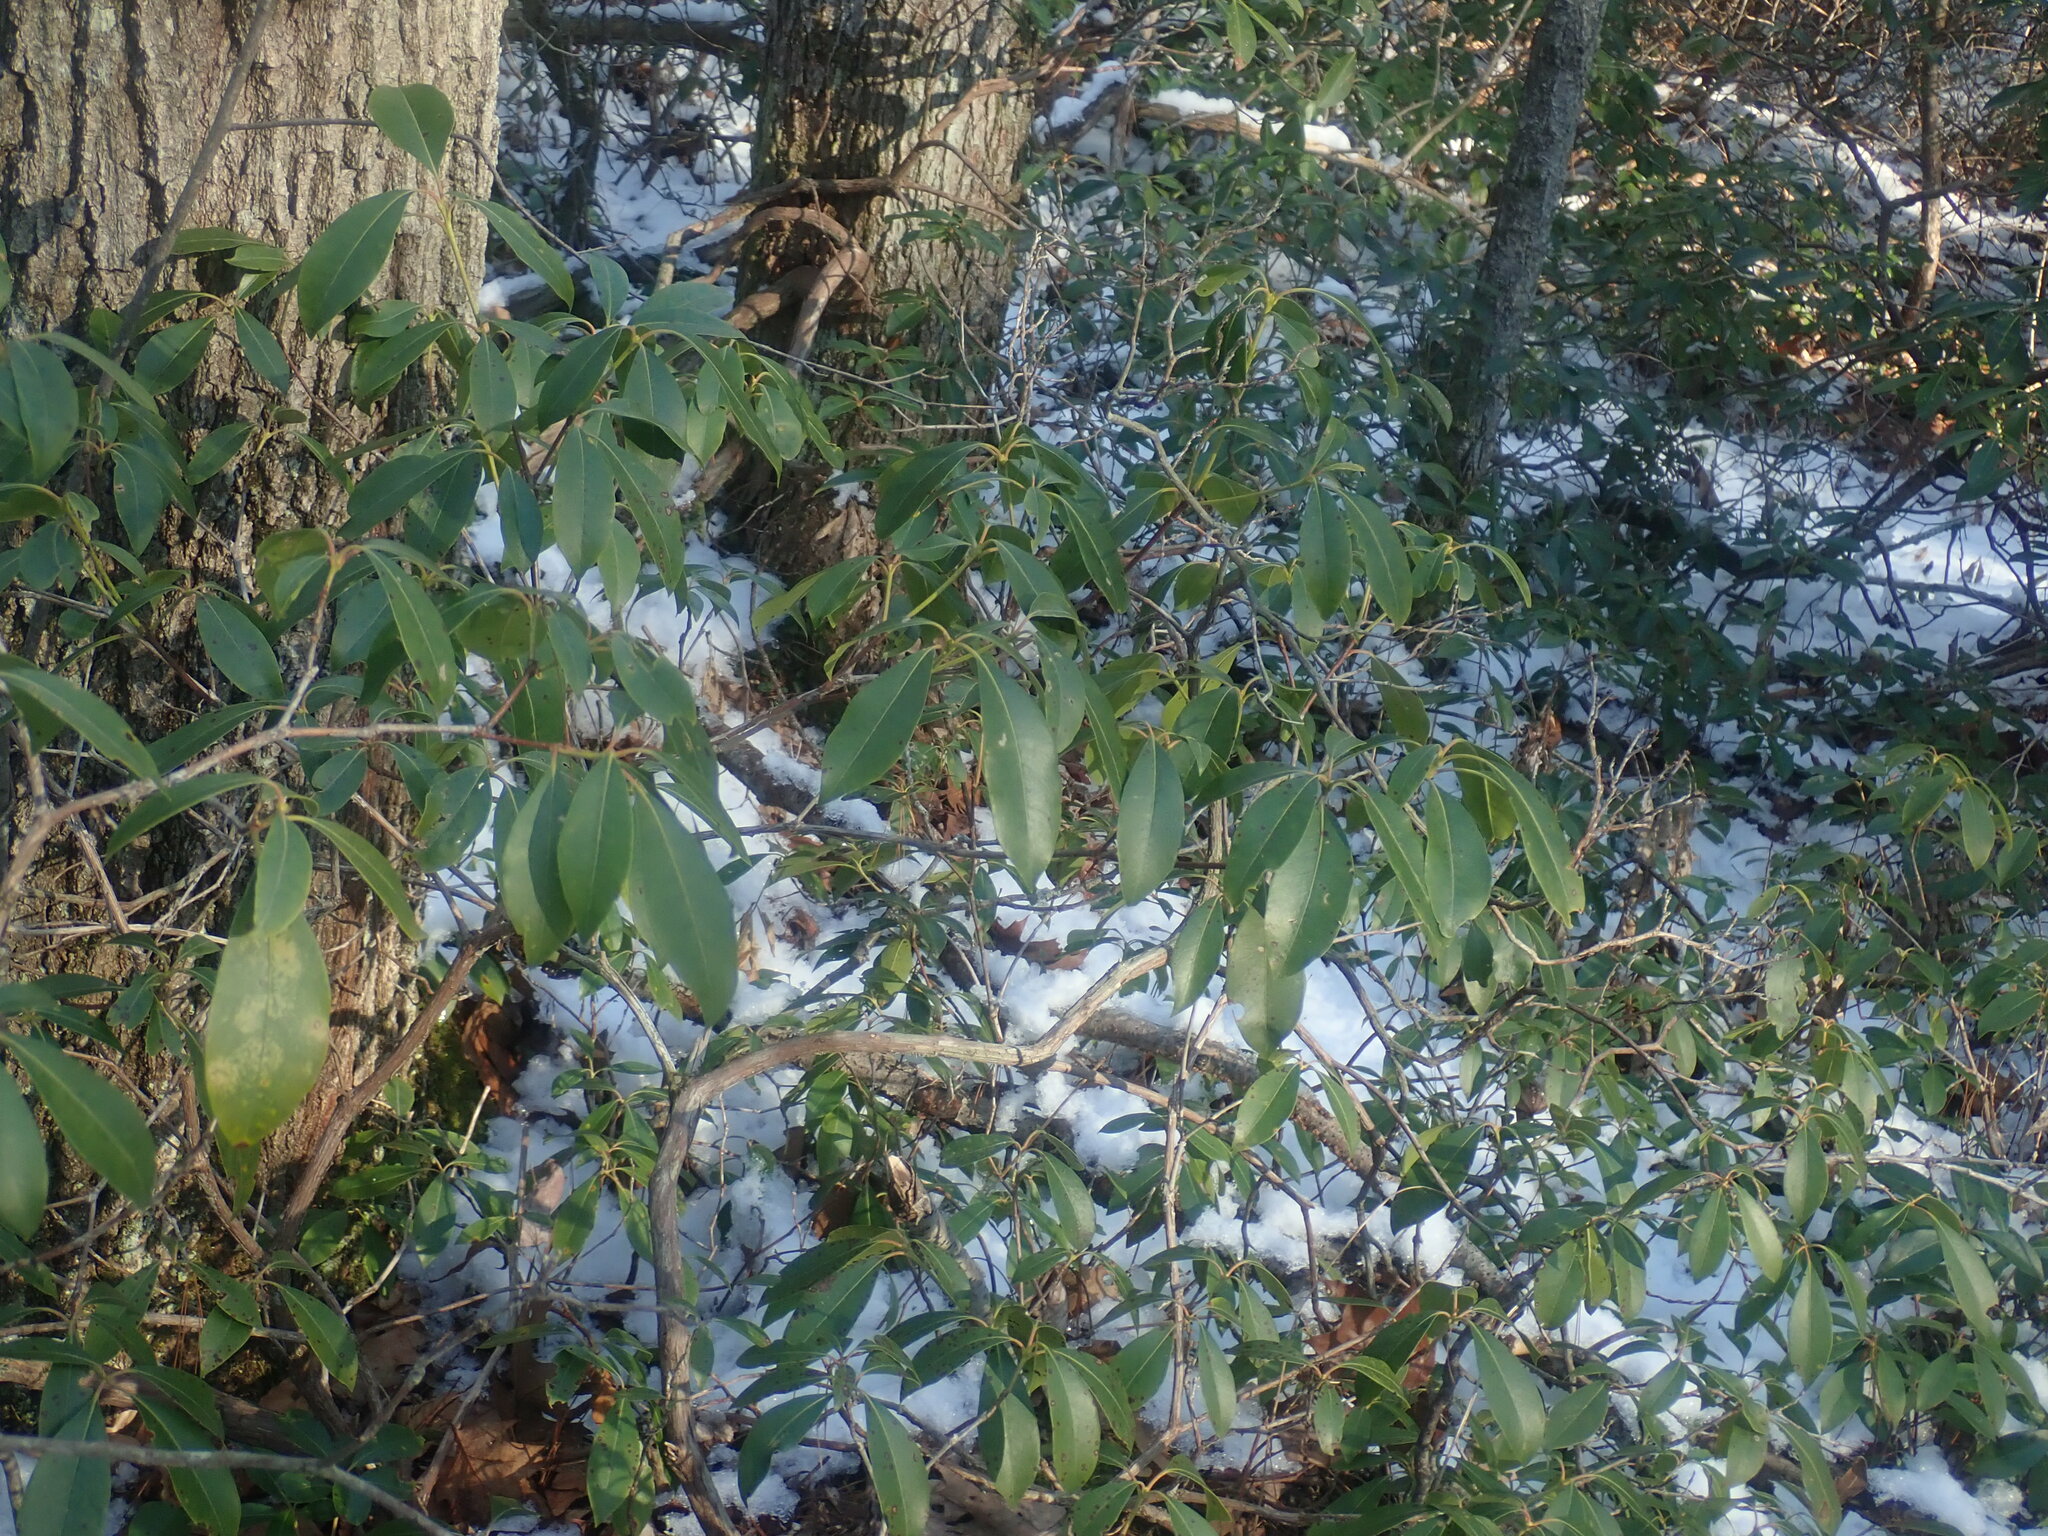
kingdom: Plantae
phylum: Tracheophyta
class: Magnoliopsida
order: Ericales
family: Ericaceae
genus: Kalmia
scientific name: Kalmia latifolia
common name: Mountain-laurel
